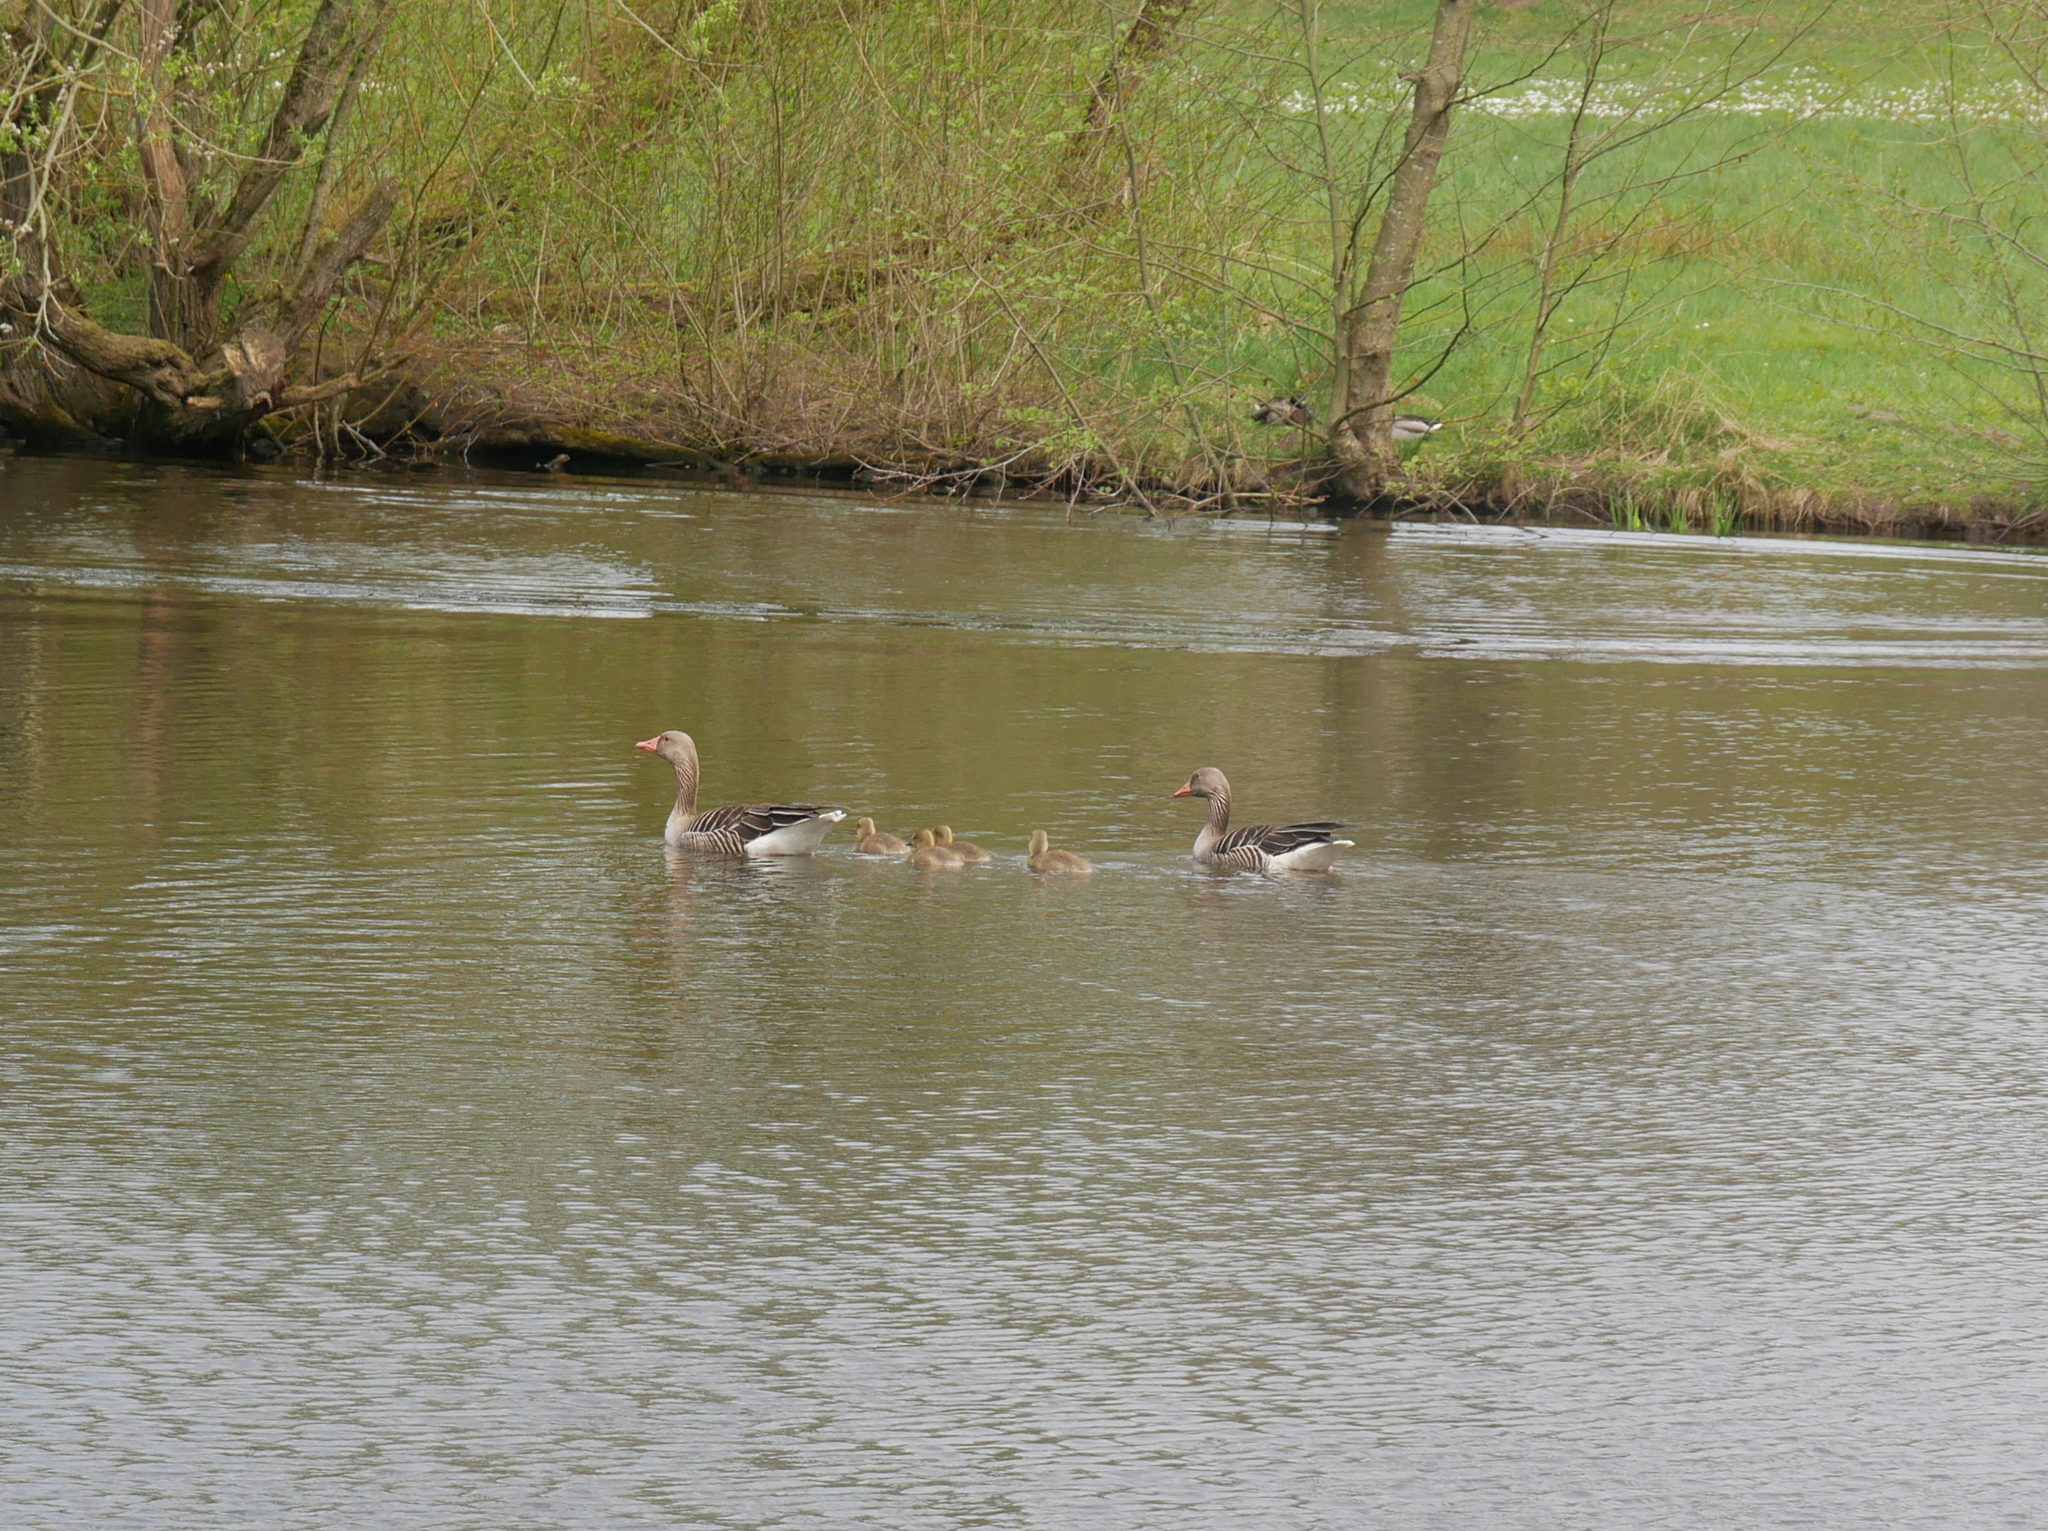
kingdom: Animalia
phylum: Chordata
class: Aves
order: Anseriformes
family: Anatidae
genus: Anser
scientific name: Anser anser
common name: Greylag goose
